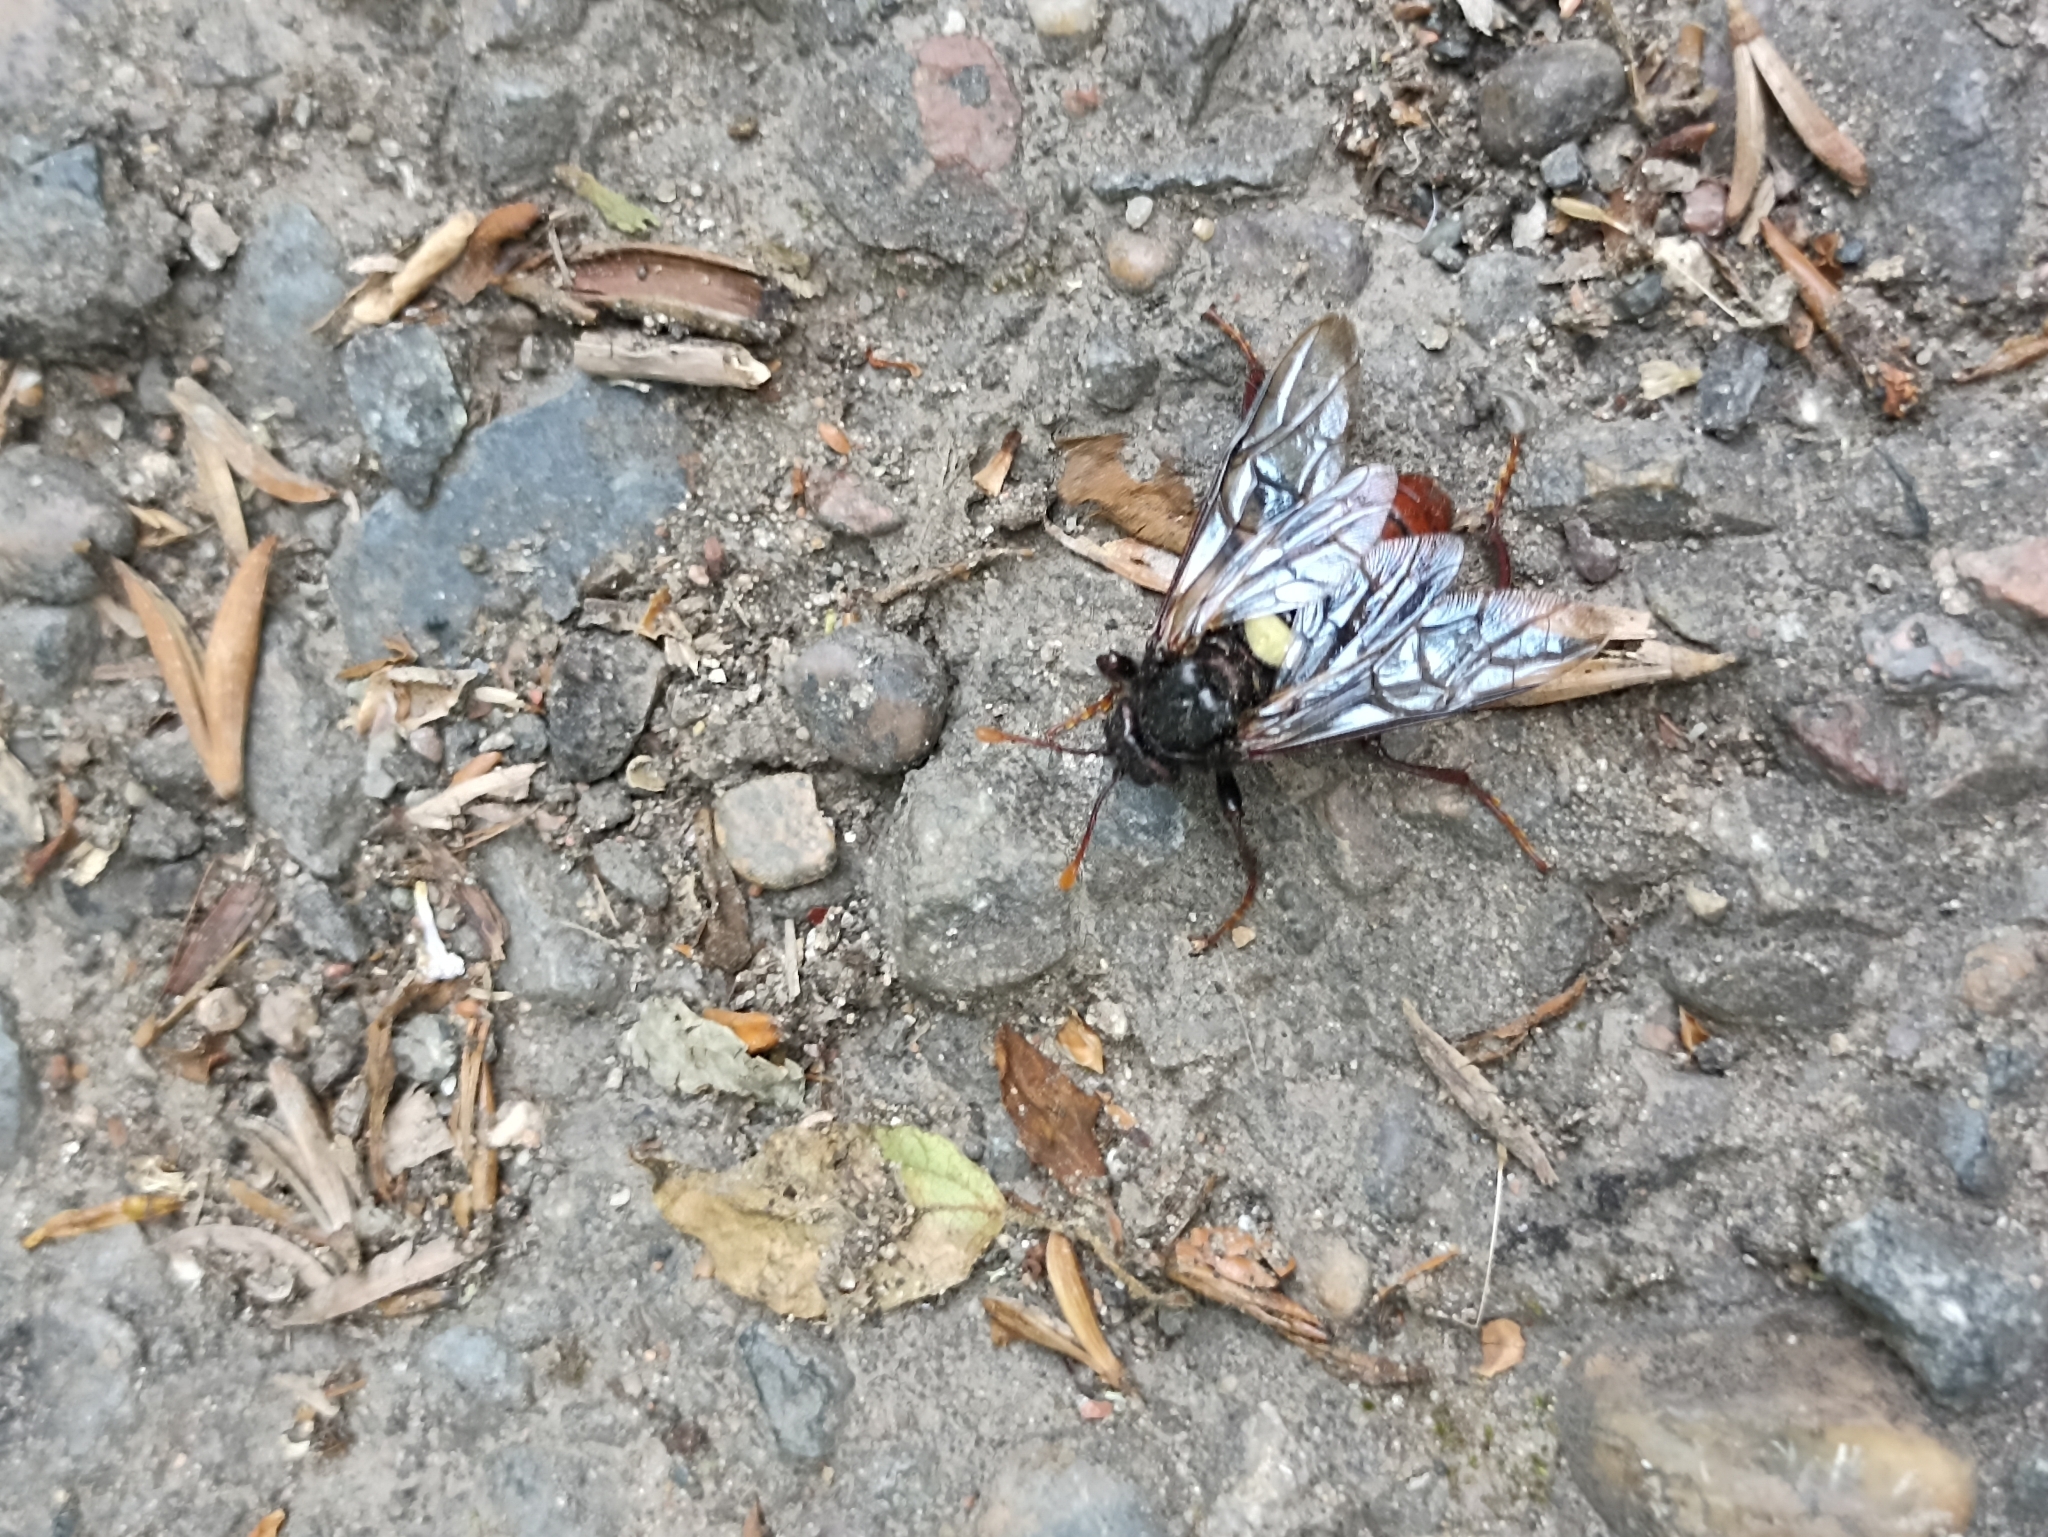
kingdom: Animalia
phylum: Arthropoda
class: Insecta
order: Hymenoptera
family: Cimbicidae
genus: Cimbex
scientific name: Cimbex femoratus
